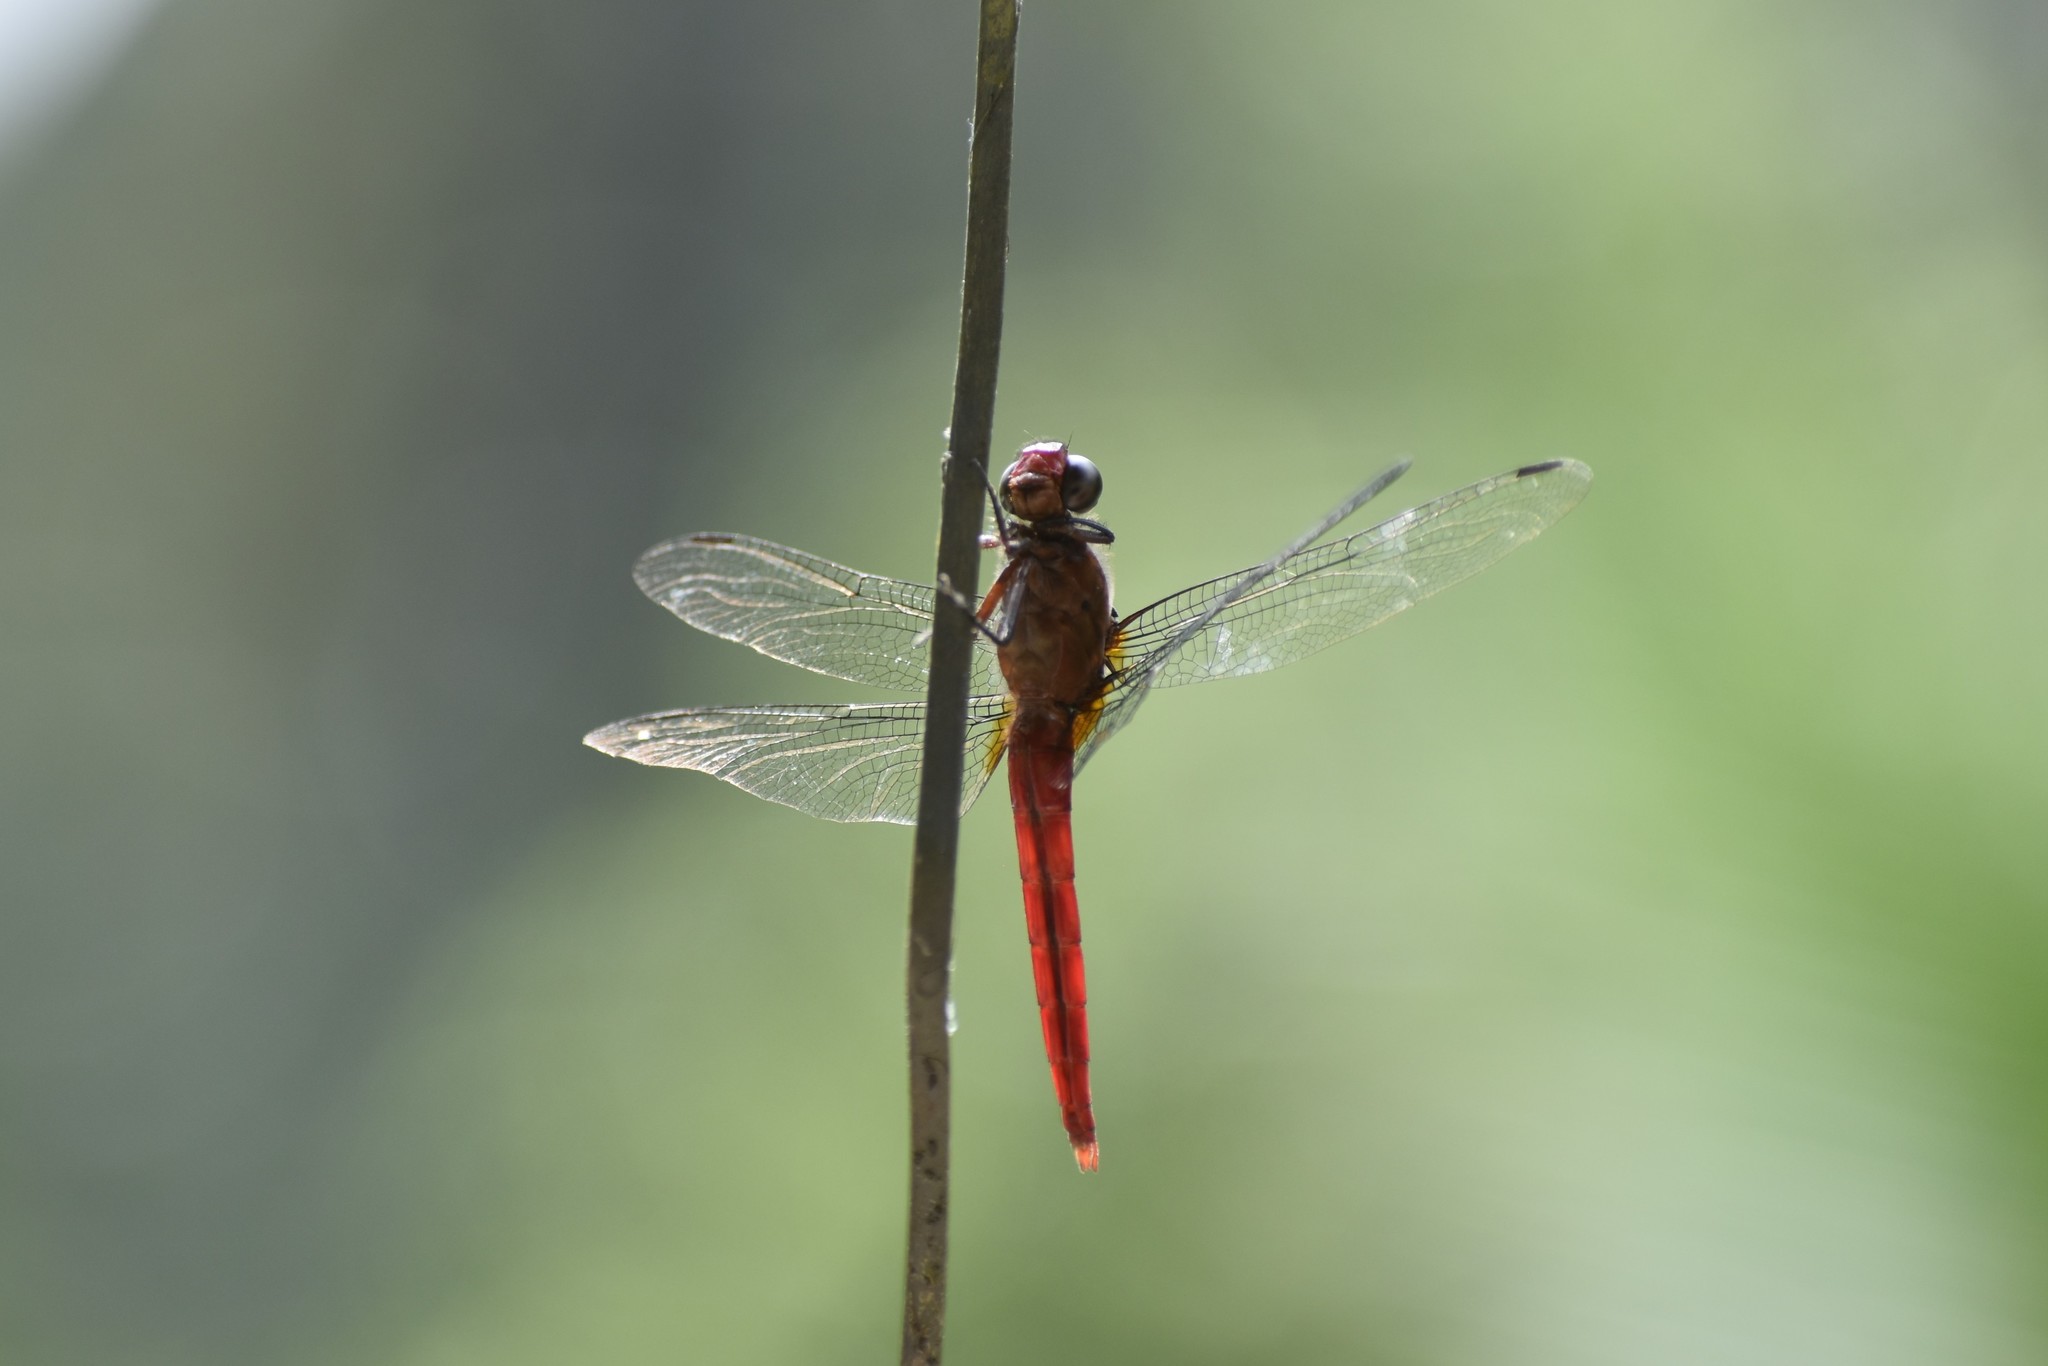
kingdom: Animalia
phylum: Arthropoda
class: Insecta
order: Odonata
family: Libellulidae
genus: Orthetrum
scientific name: Orthetrum chrysis
